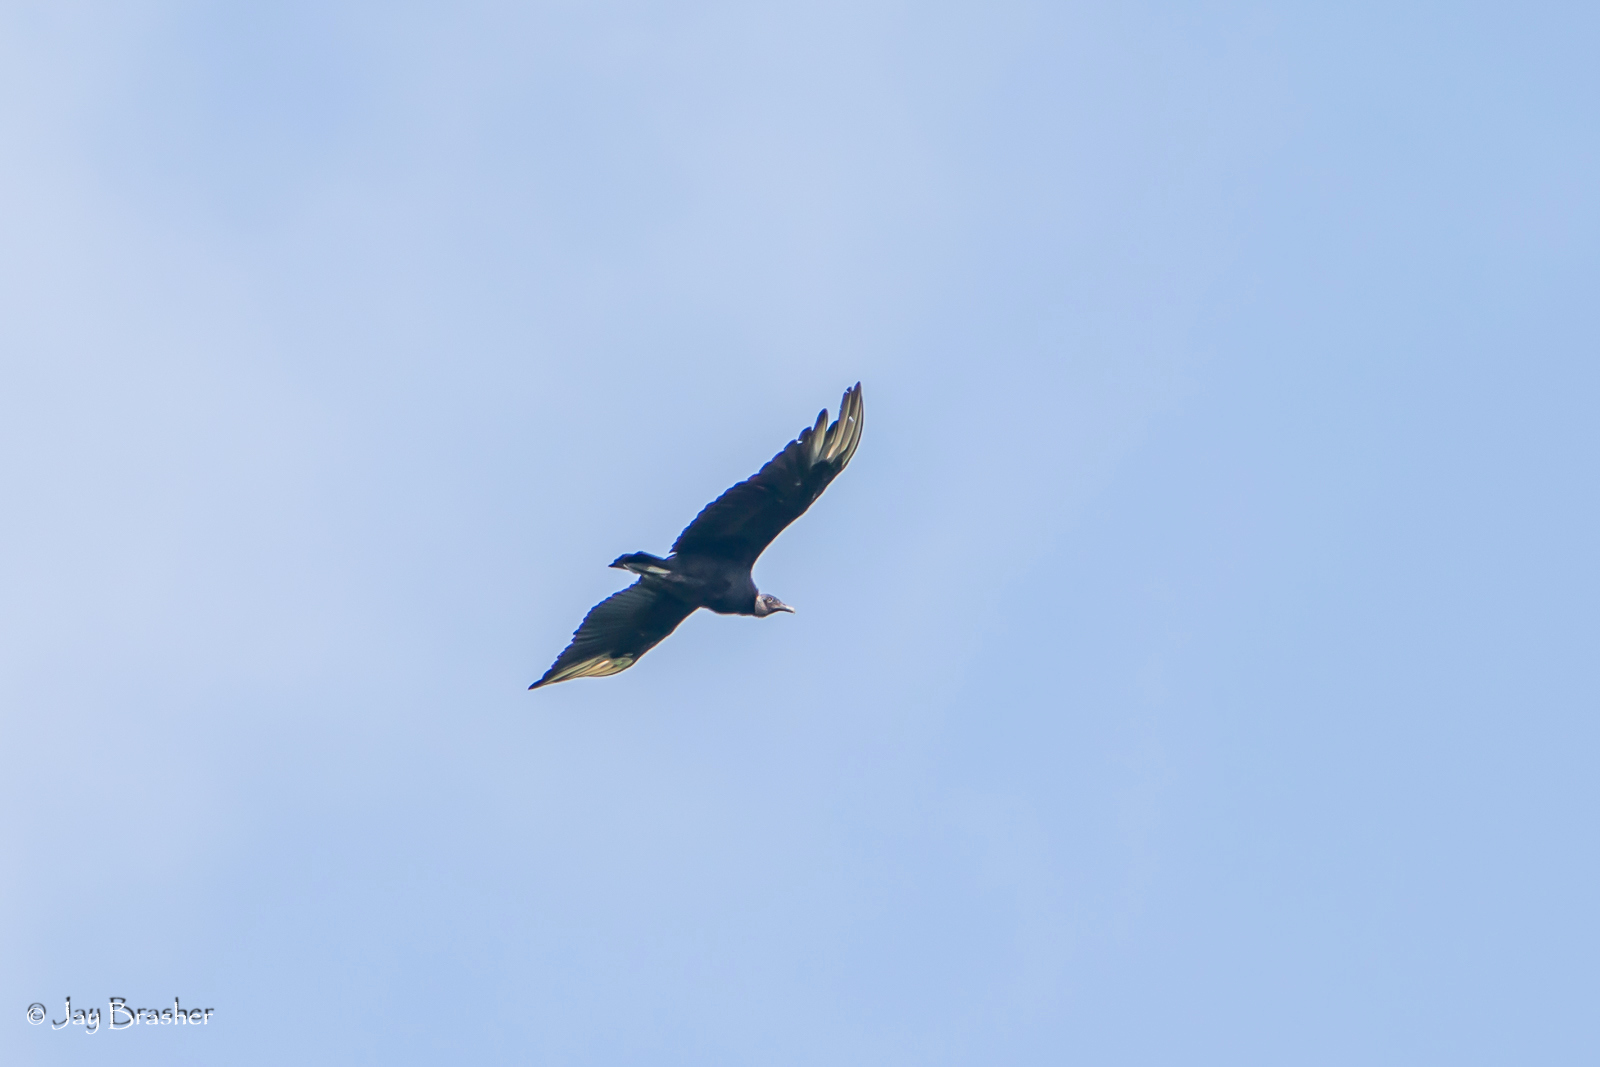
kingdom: Animalia
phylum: Chordata
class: Aves
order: Accipitriformes
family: Cathartidae
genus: Coragyps
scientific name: Coragyps atratus
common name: Black vulture
